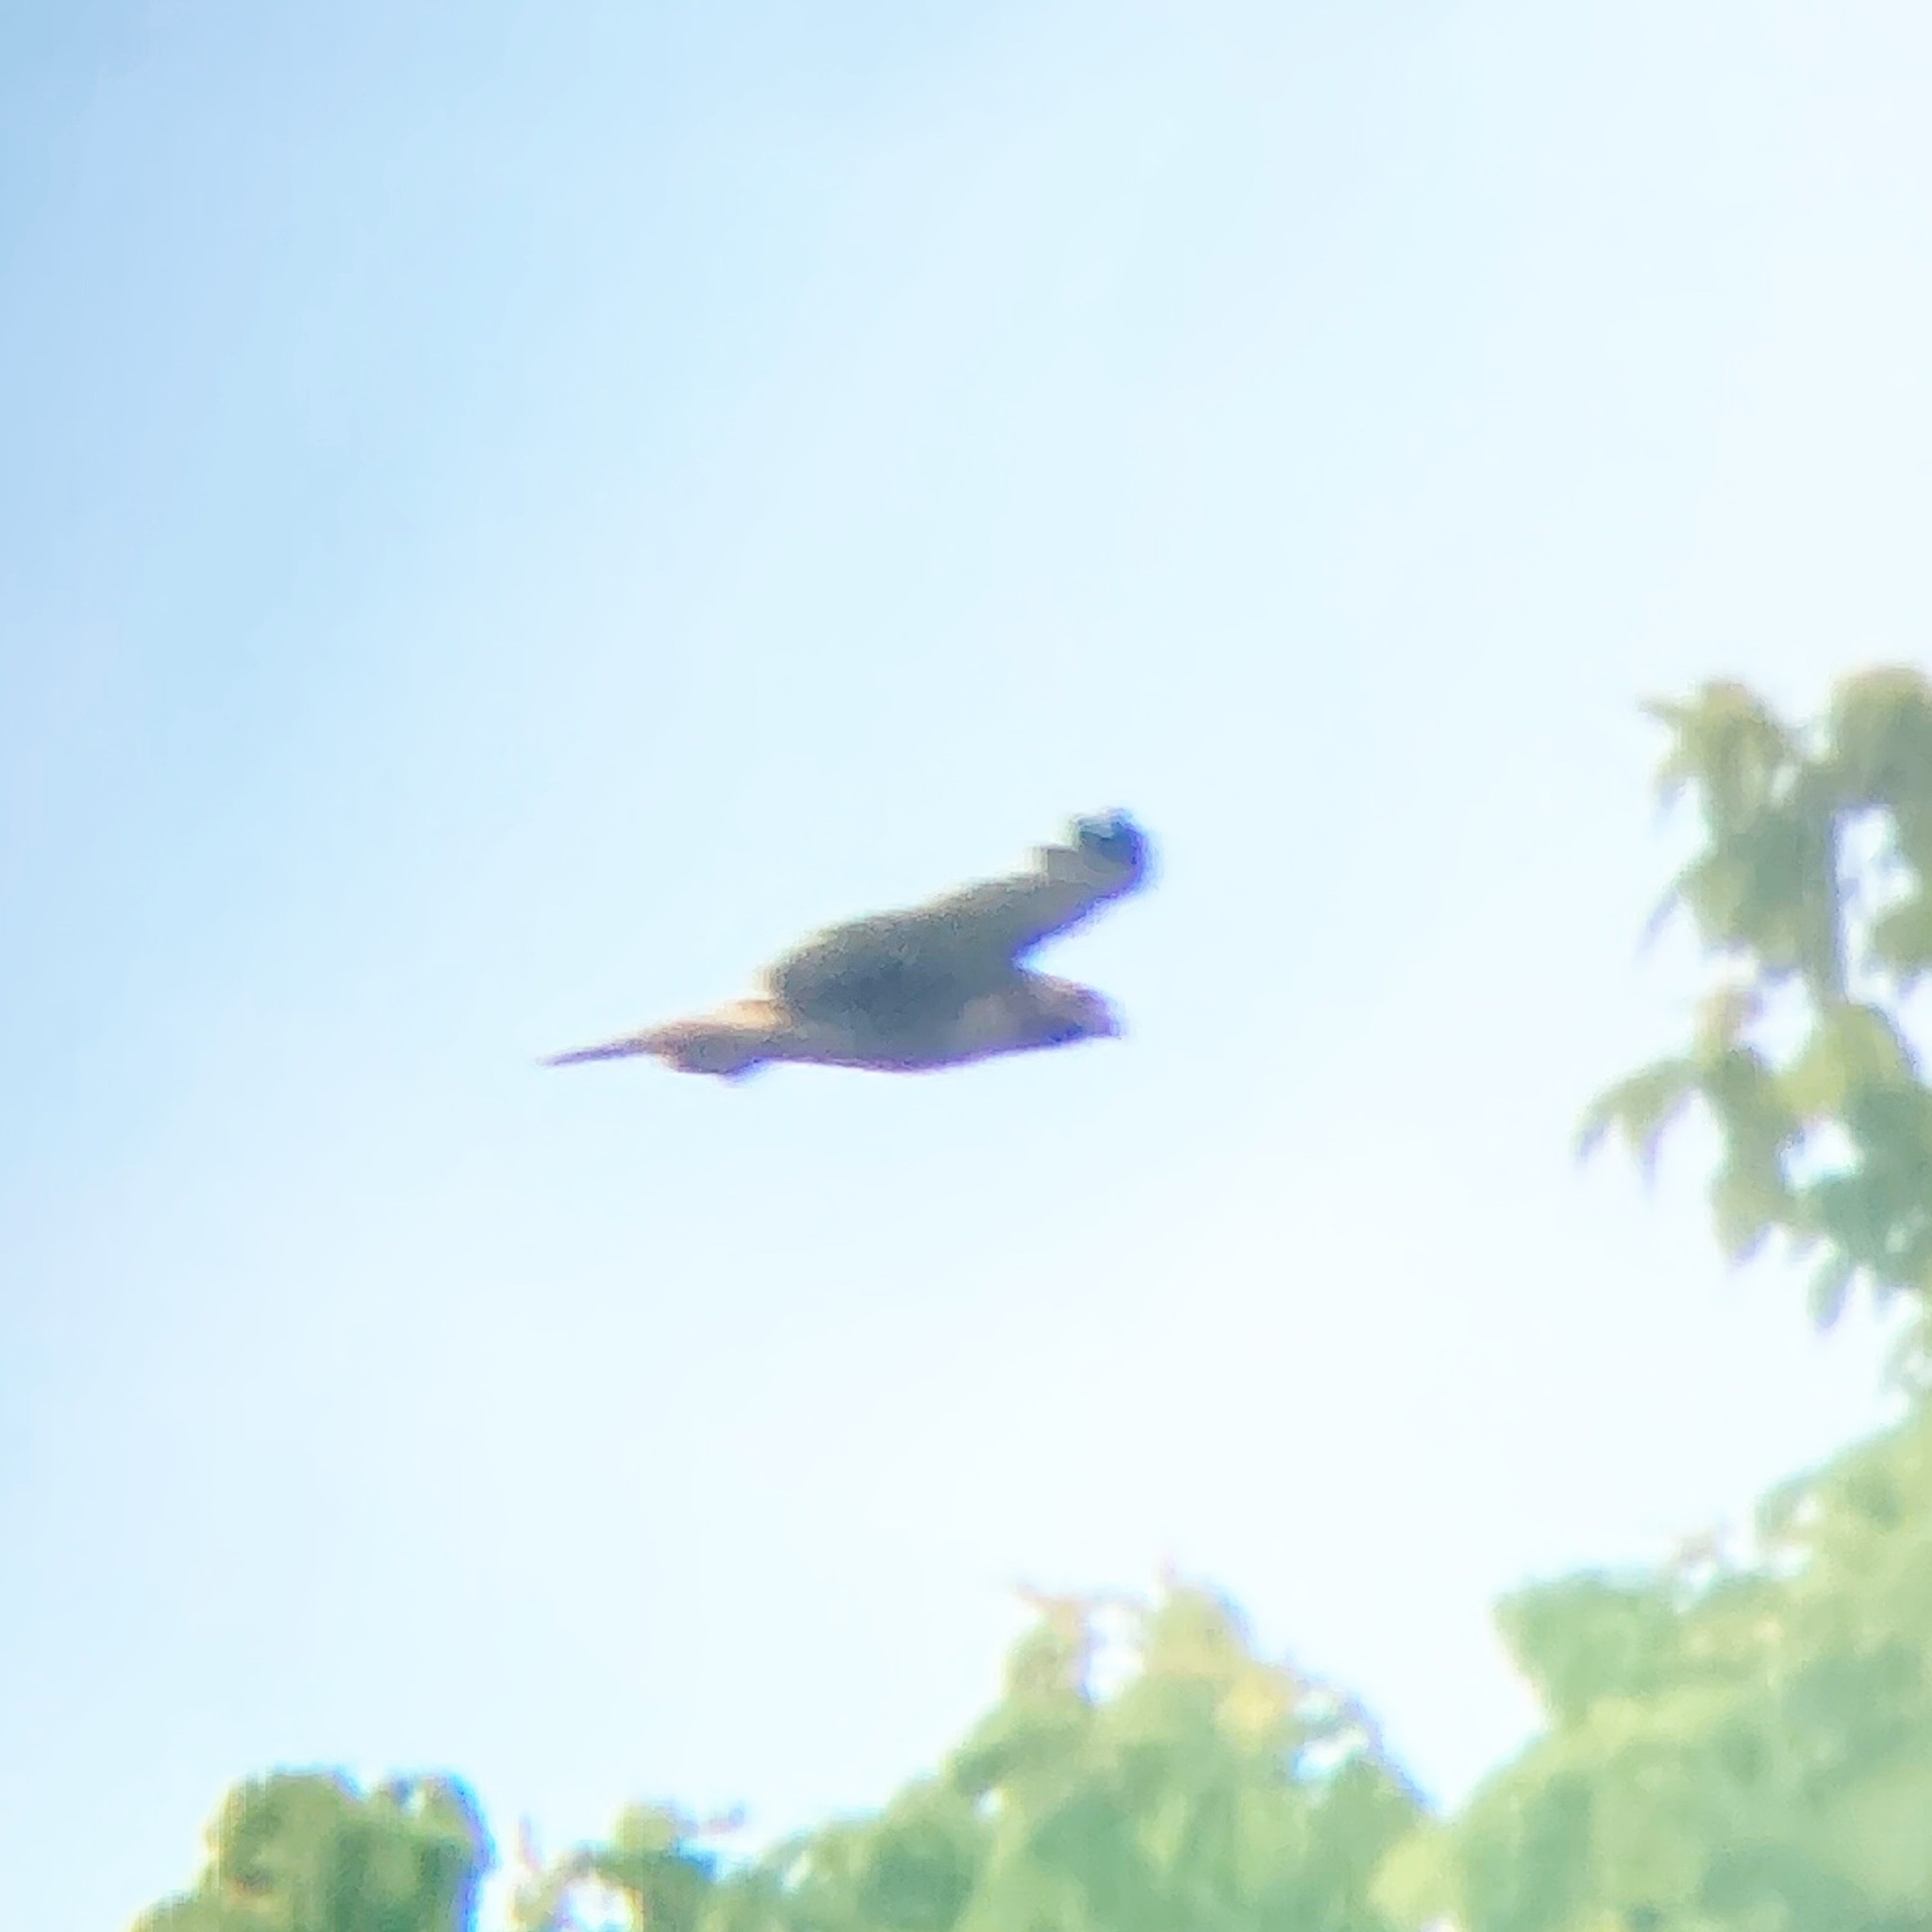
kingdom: Animalia
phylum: Chordata
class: Aves
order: Accipitriformes
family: Accipitridae
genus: Buteo
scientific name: Buteo jamaicensis
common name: Red-tailed hawk
